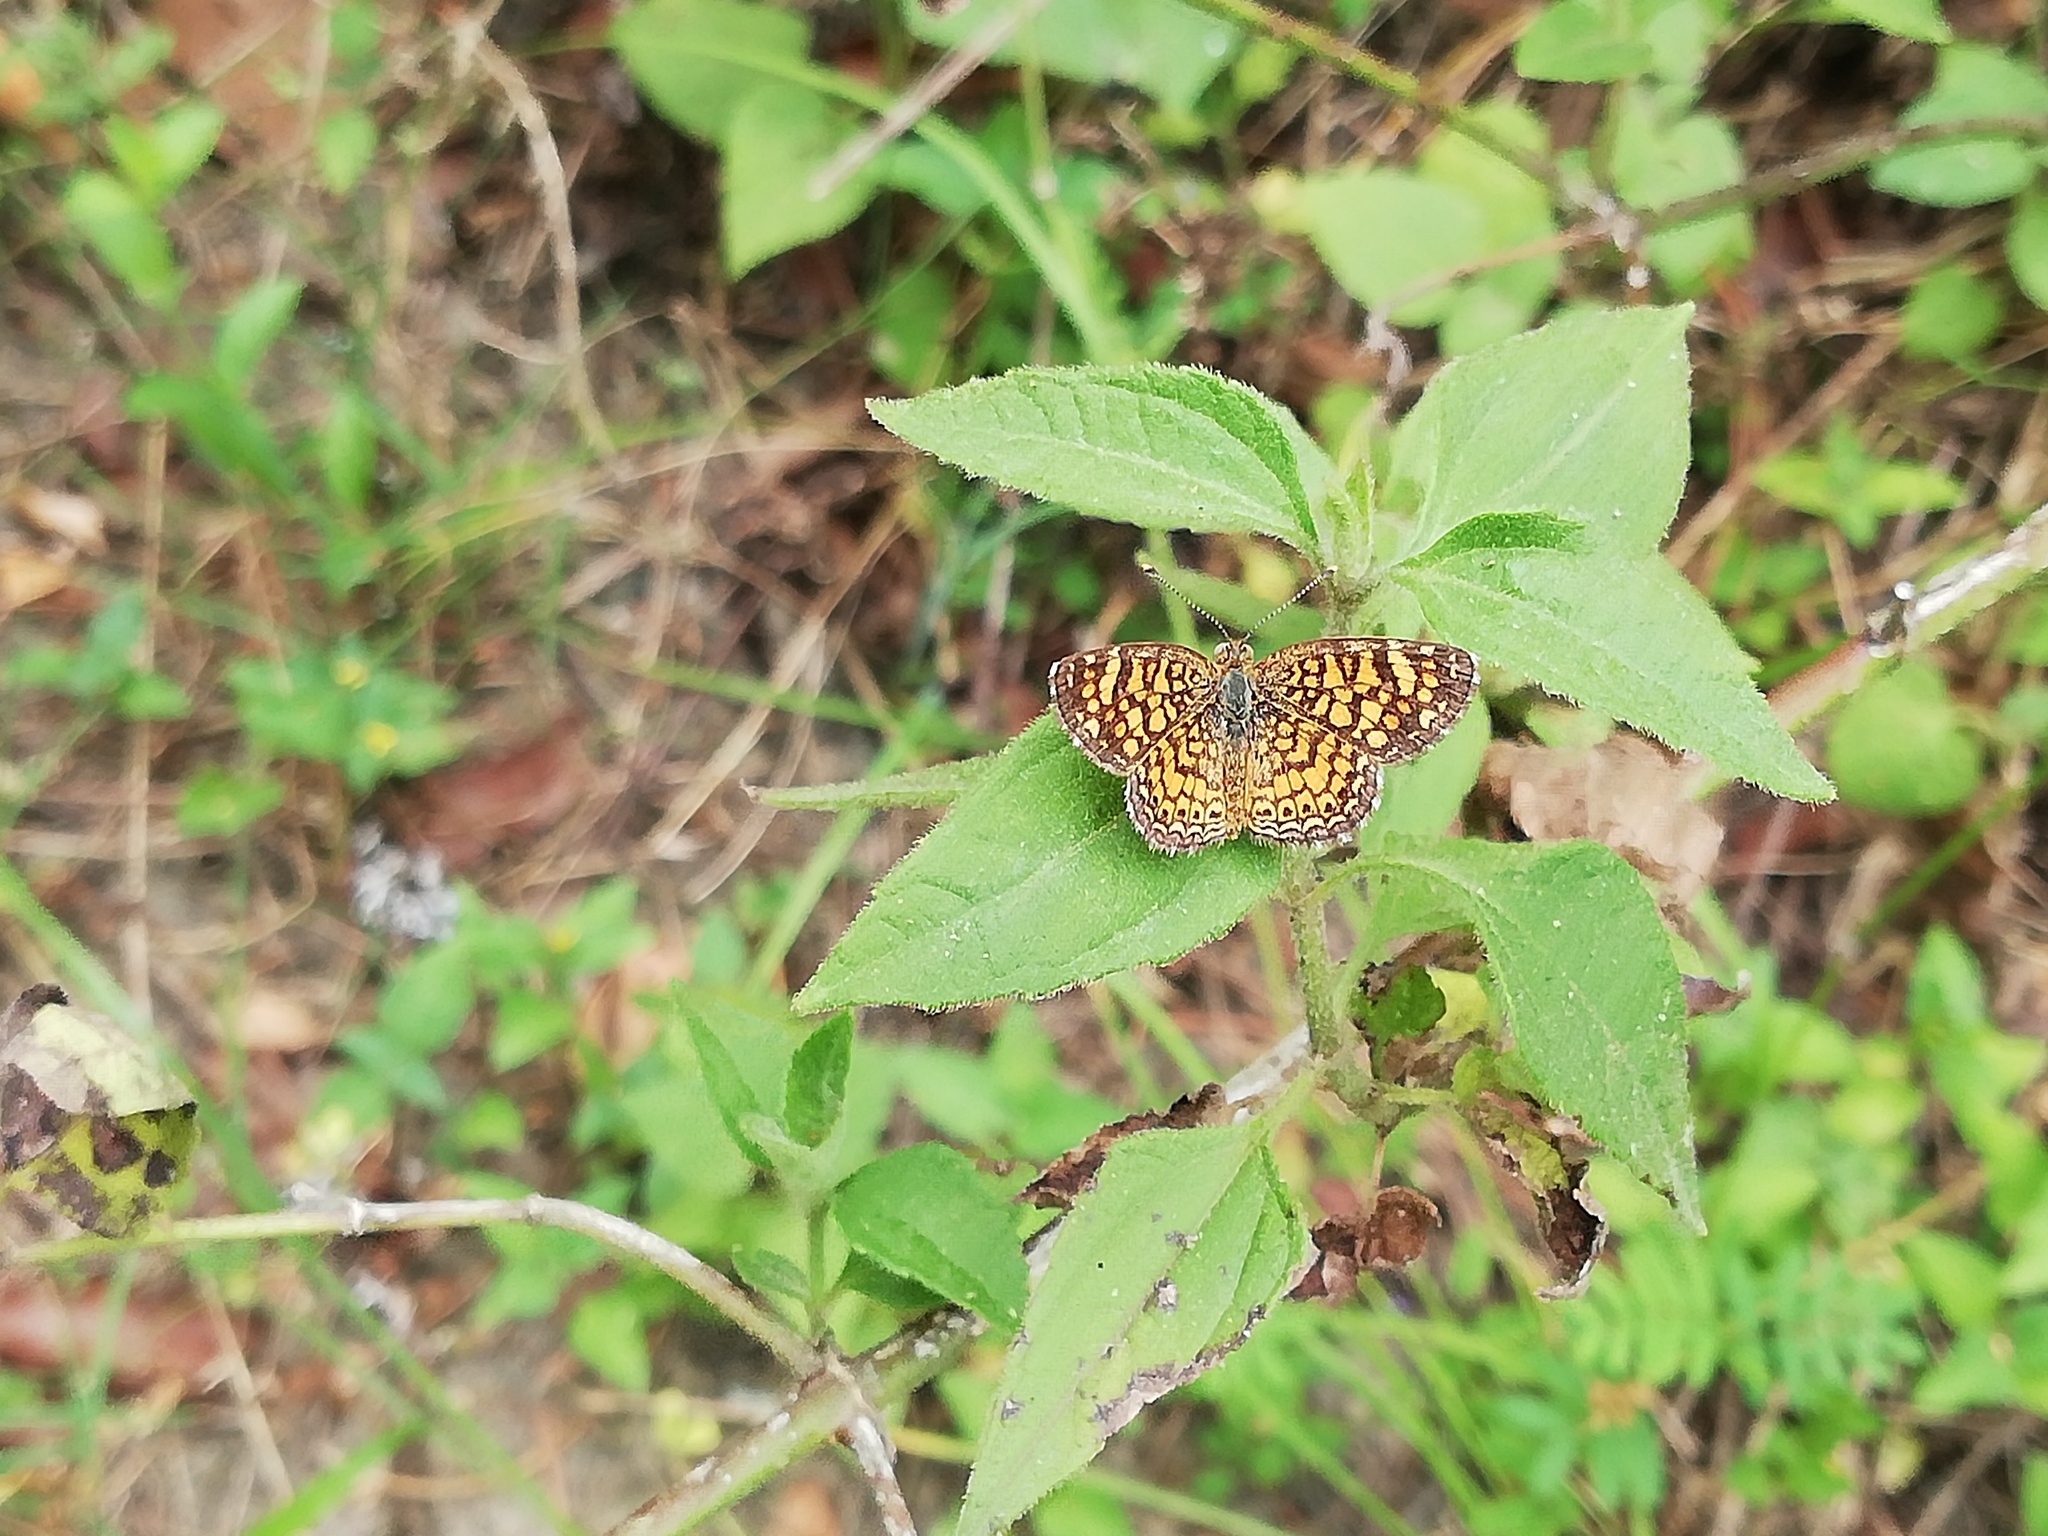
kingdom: Animalia
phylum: Arthropoda
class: Insecta
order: Lepidoptera
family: Nymphalidae
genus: Phyciodes
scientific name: Phyciodes vesta
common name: Vesta crescent
